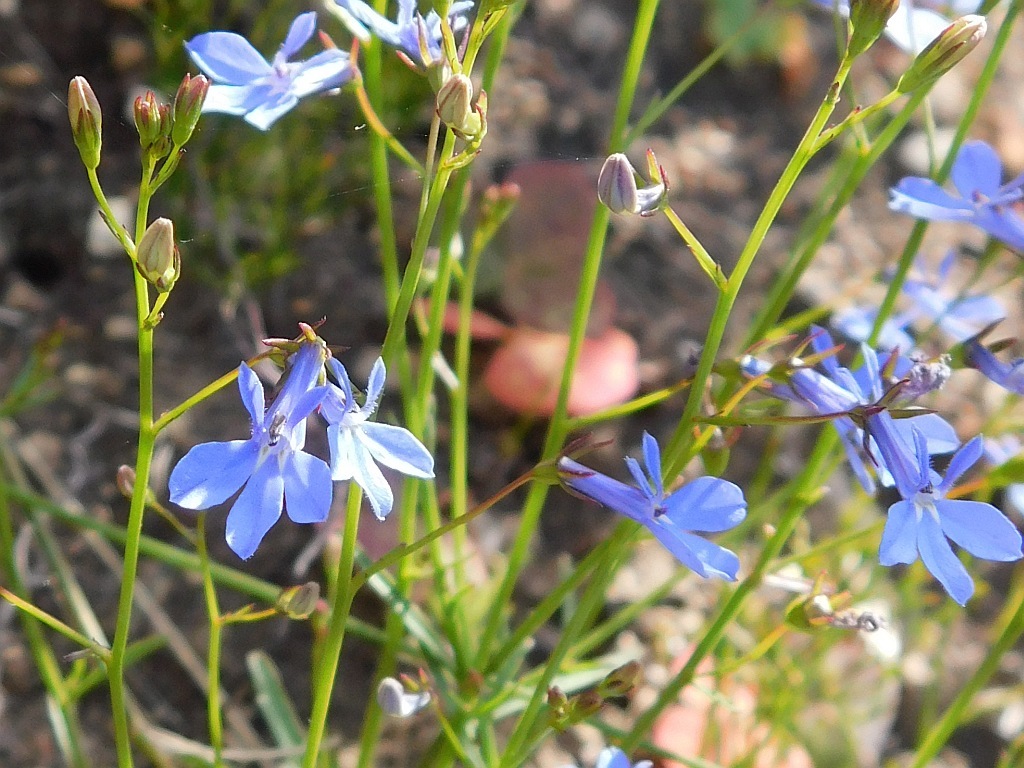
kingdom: Plantae
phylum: Tracheophyta
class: Magnoliopsida
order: Asterales
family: Campanulaceae
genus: Lobelia
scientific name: Lobelia erinus
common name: Edging lobelia
